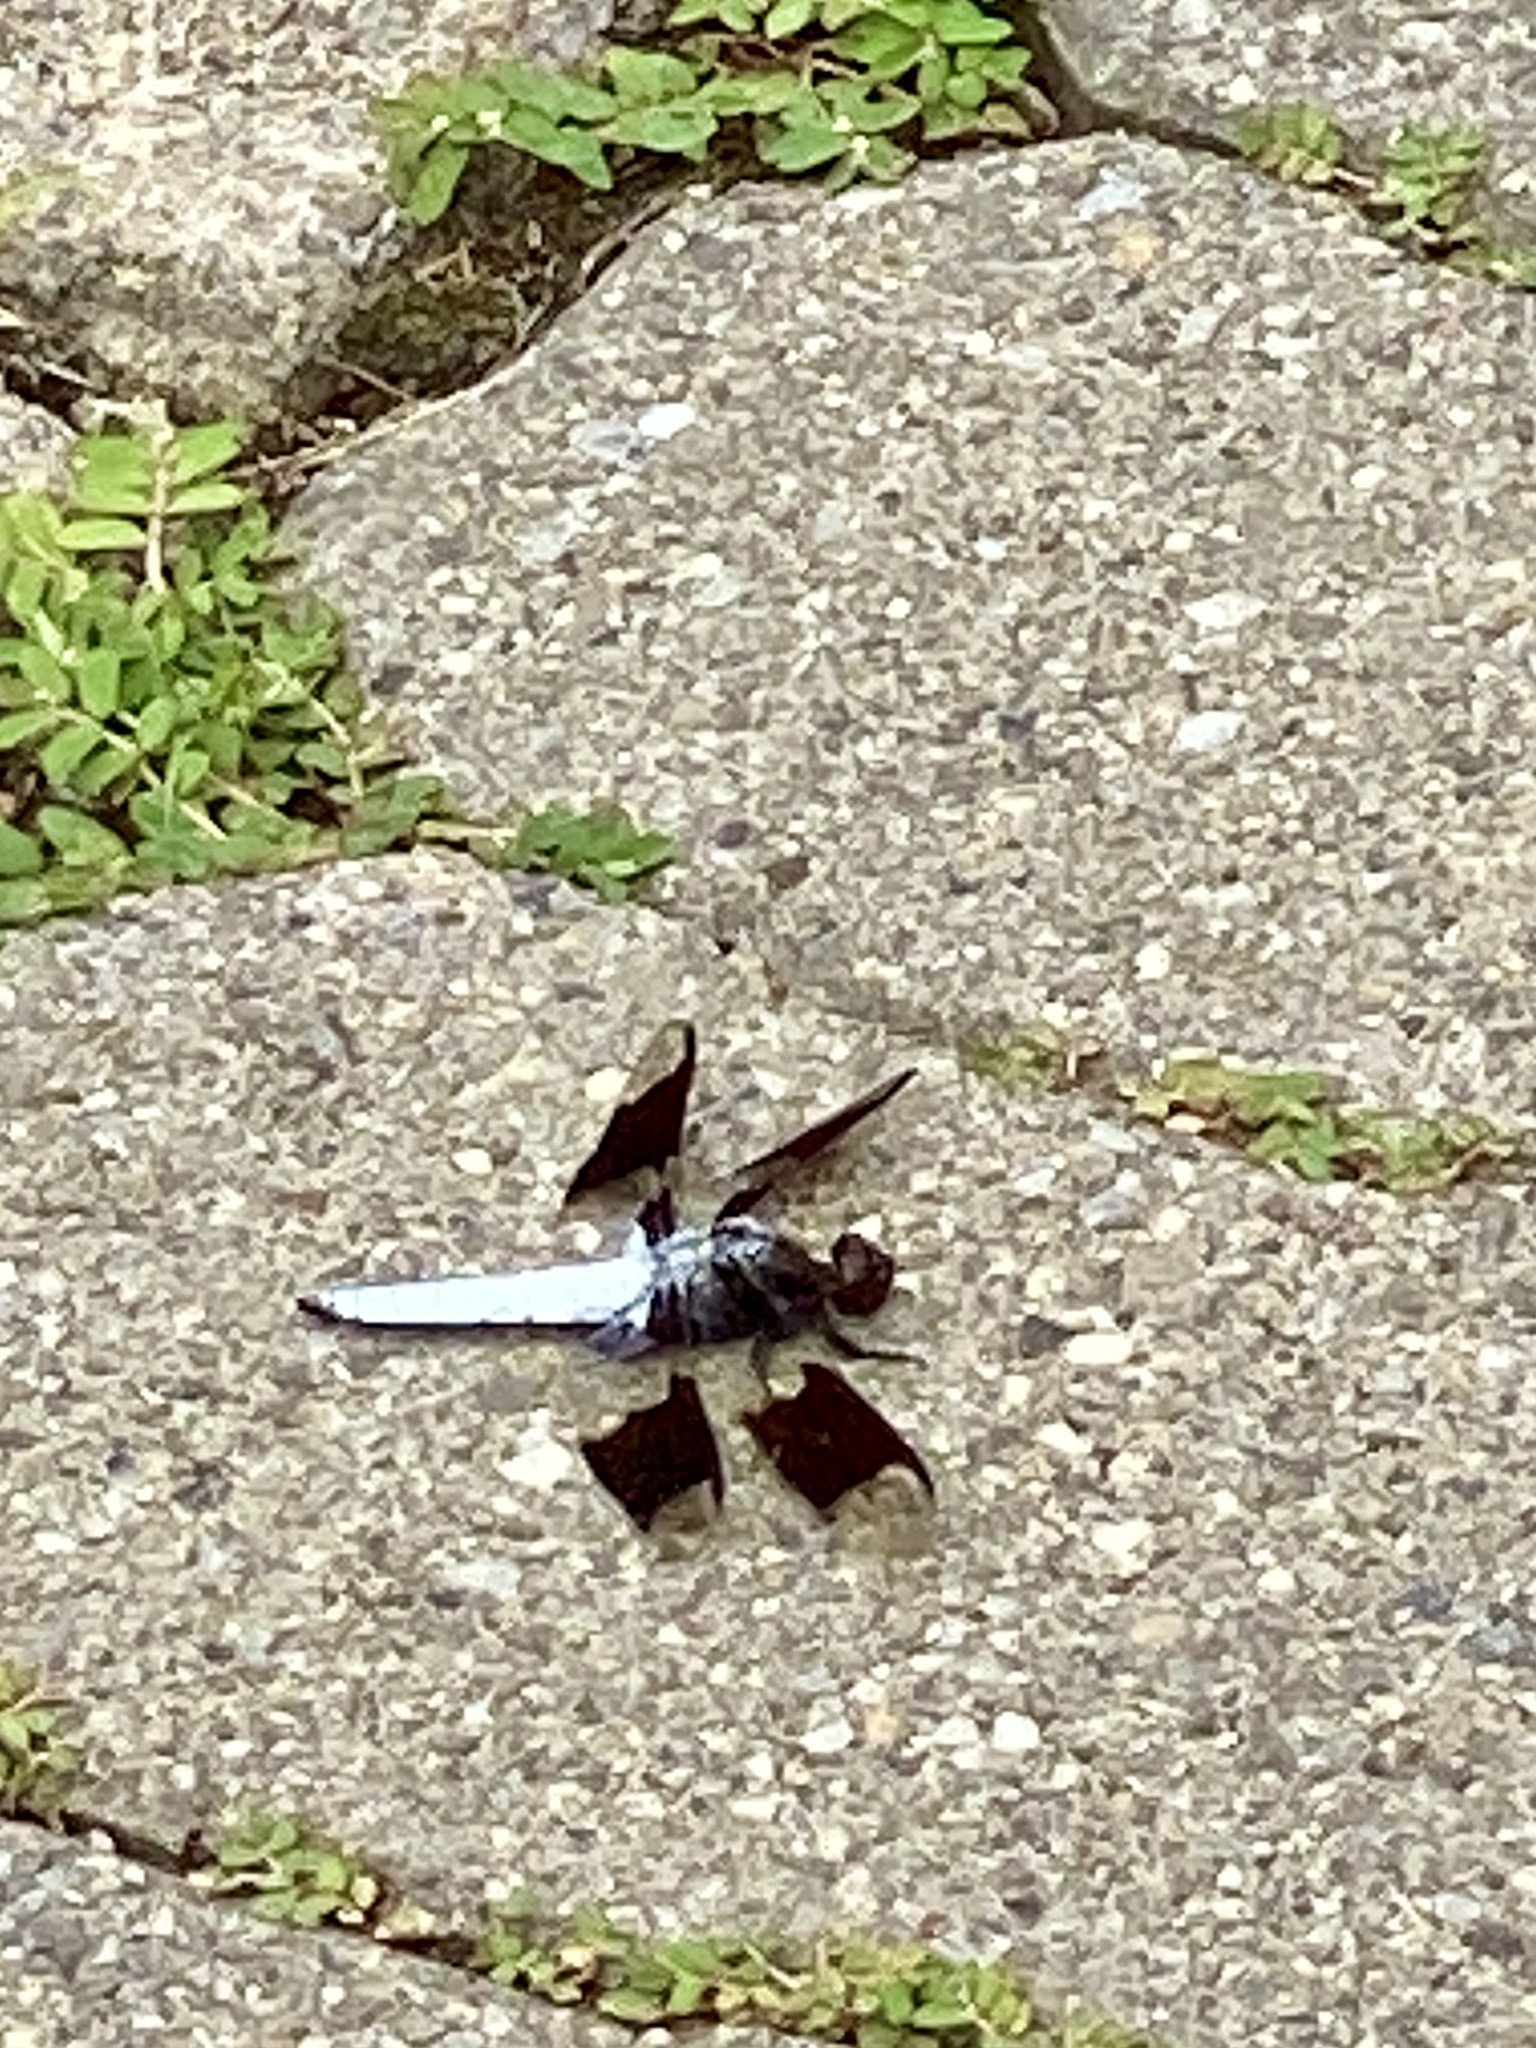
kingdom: Animalia
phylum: Arthropoda
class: Insecta
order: Odonata
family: Libellulidae
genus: Plathemis
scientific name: Plathemis lydia
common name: Common whitetail
